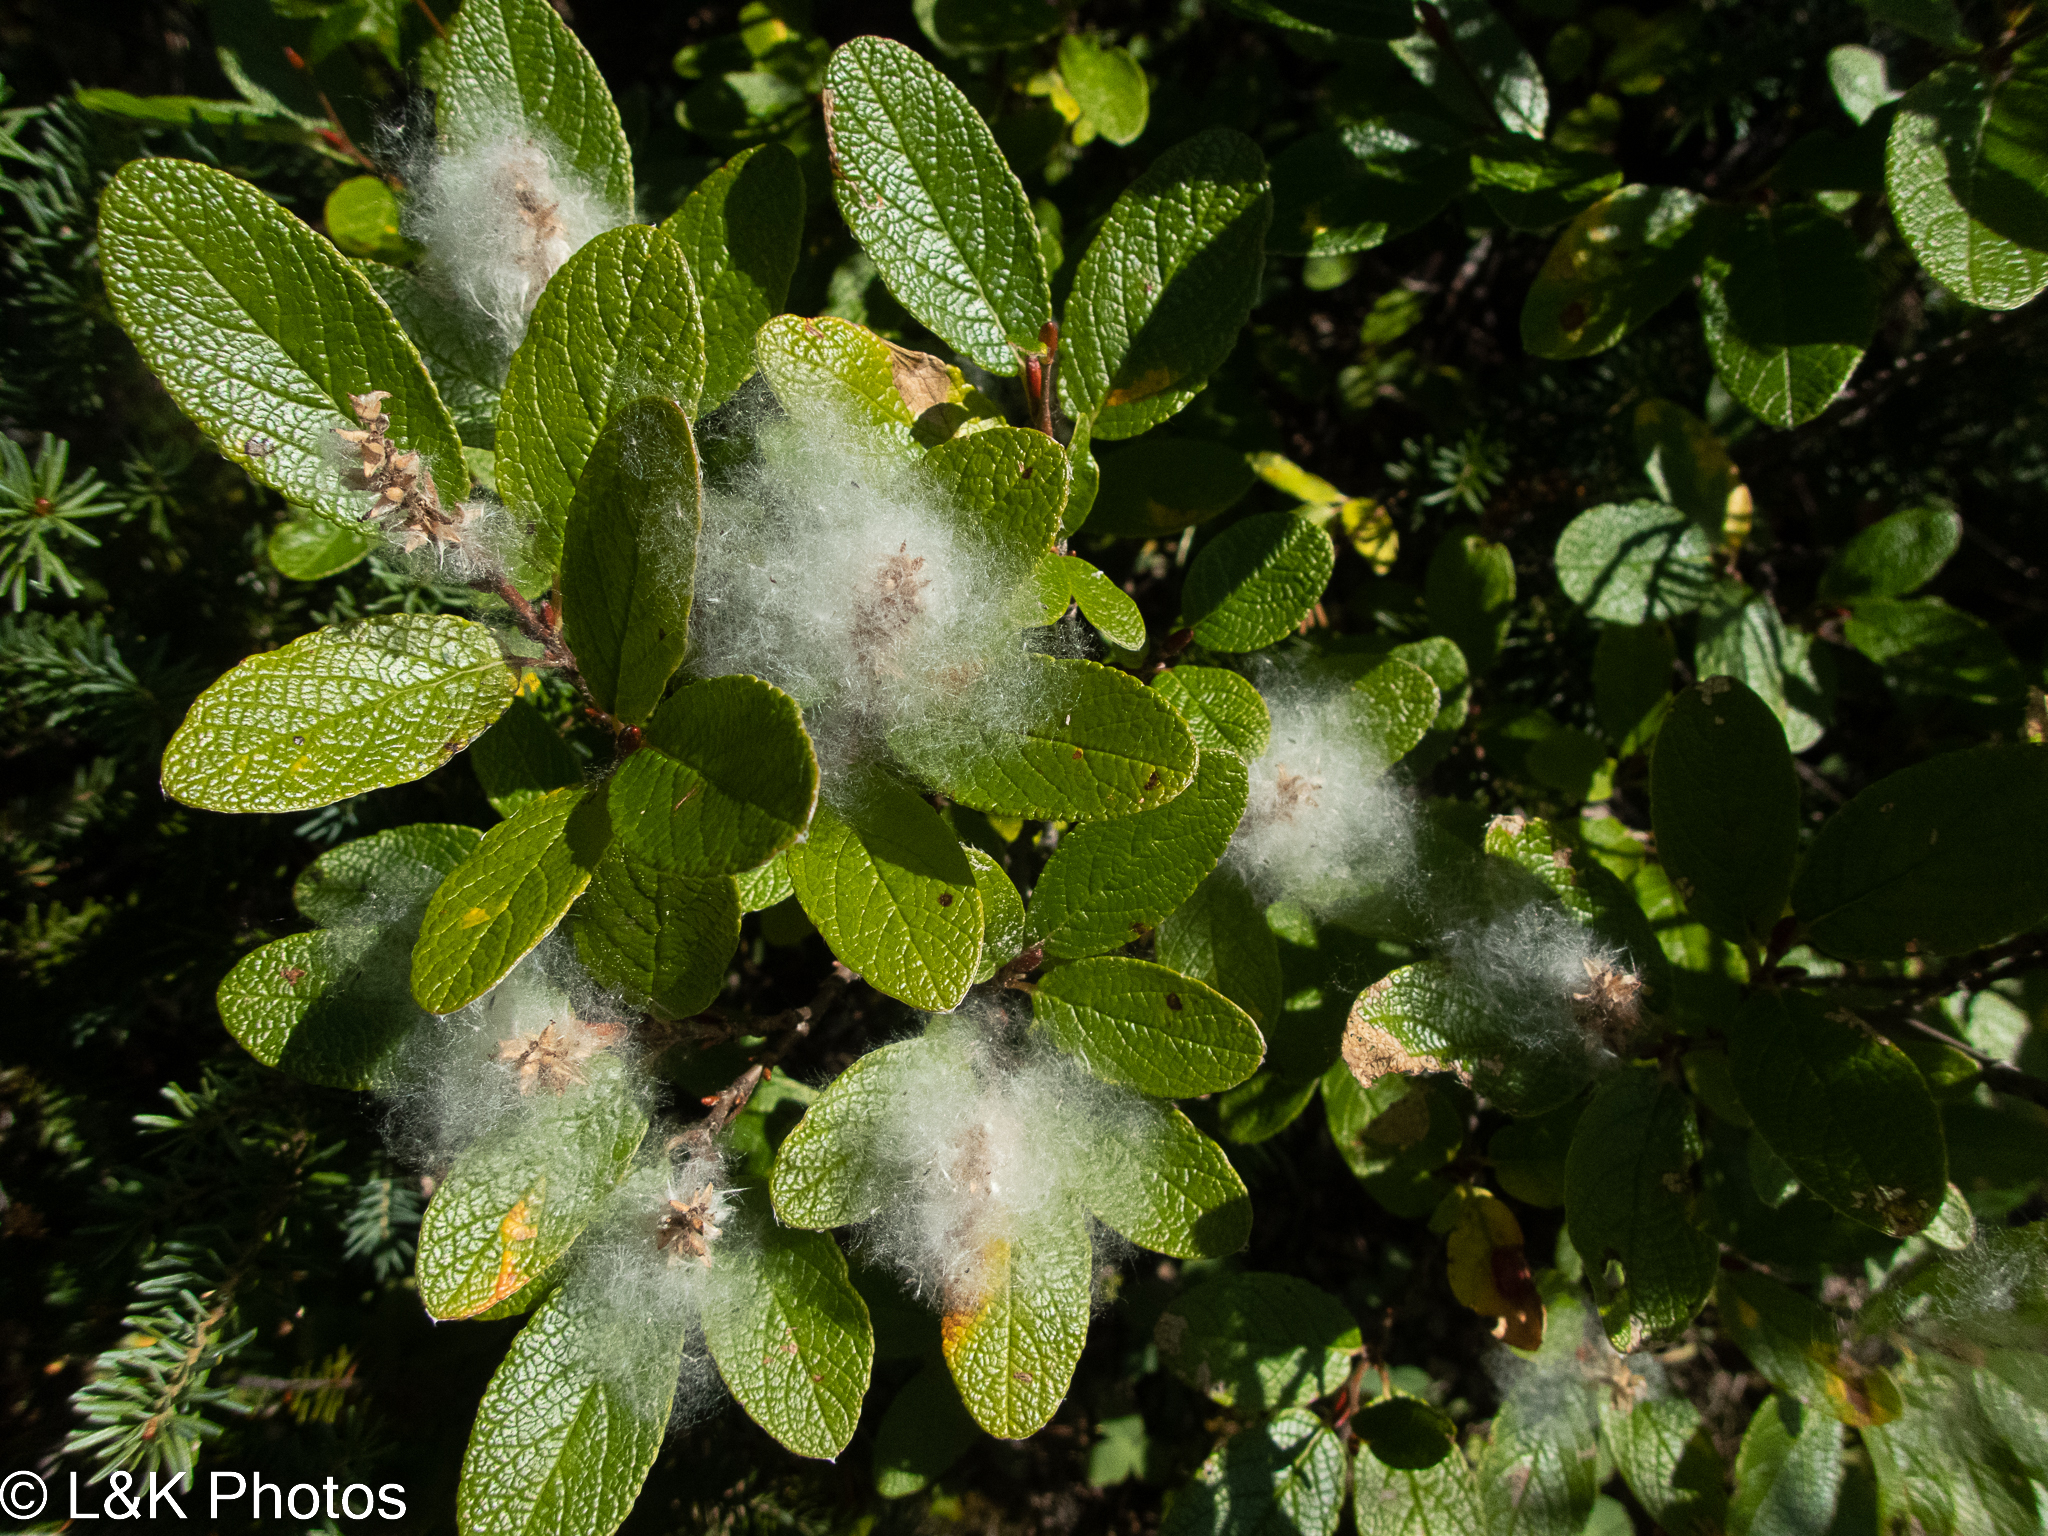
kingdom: Plantae
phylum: Tracheophyta
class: Magnoliopsida
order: Malpighiales
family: Salicaceae
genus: Salix
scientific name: Salix vestita
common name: Hairy willow
